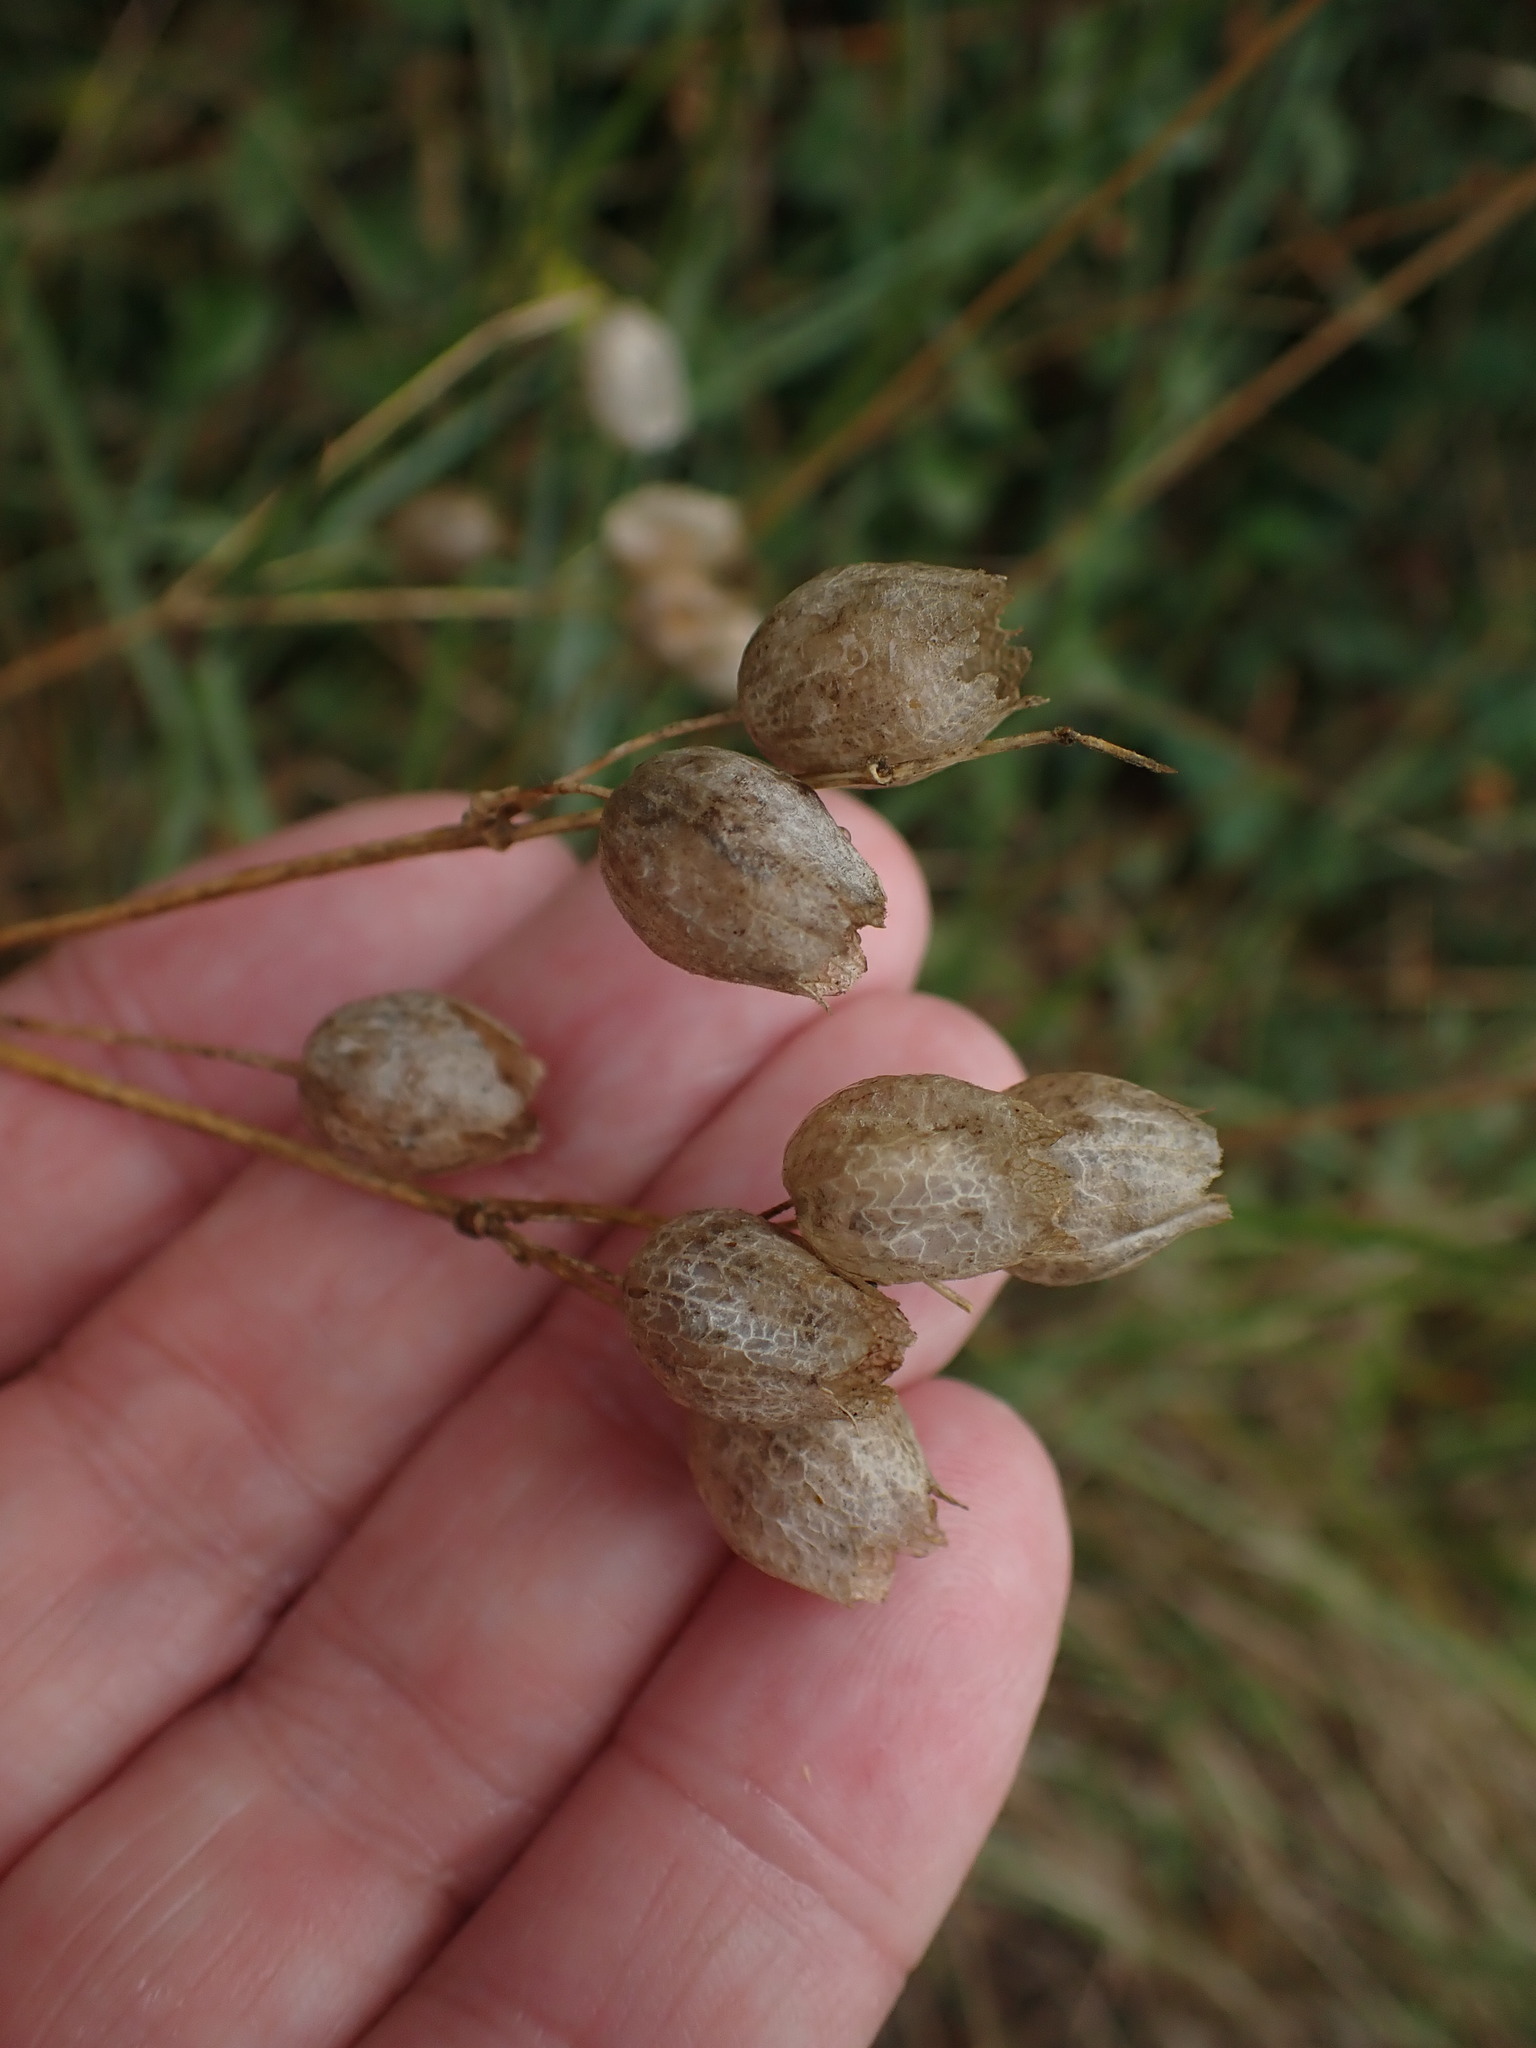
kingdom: Plantae
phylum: Tracheophyta
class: Magnoliopsida
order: Caryophyllales
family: Caryophyllaceae
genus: Silene
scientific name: Silene vulgaris
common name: Bladder campion
